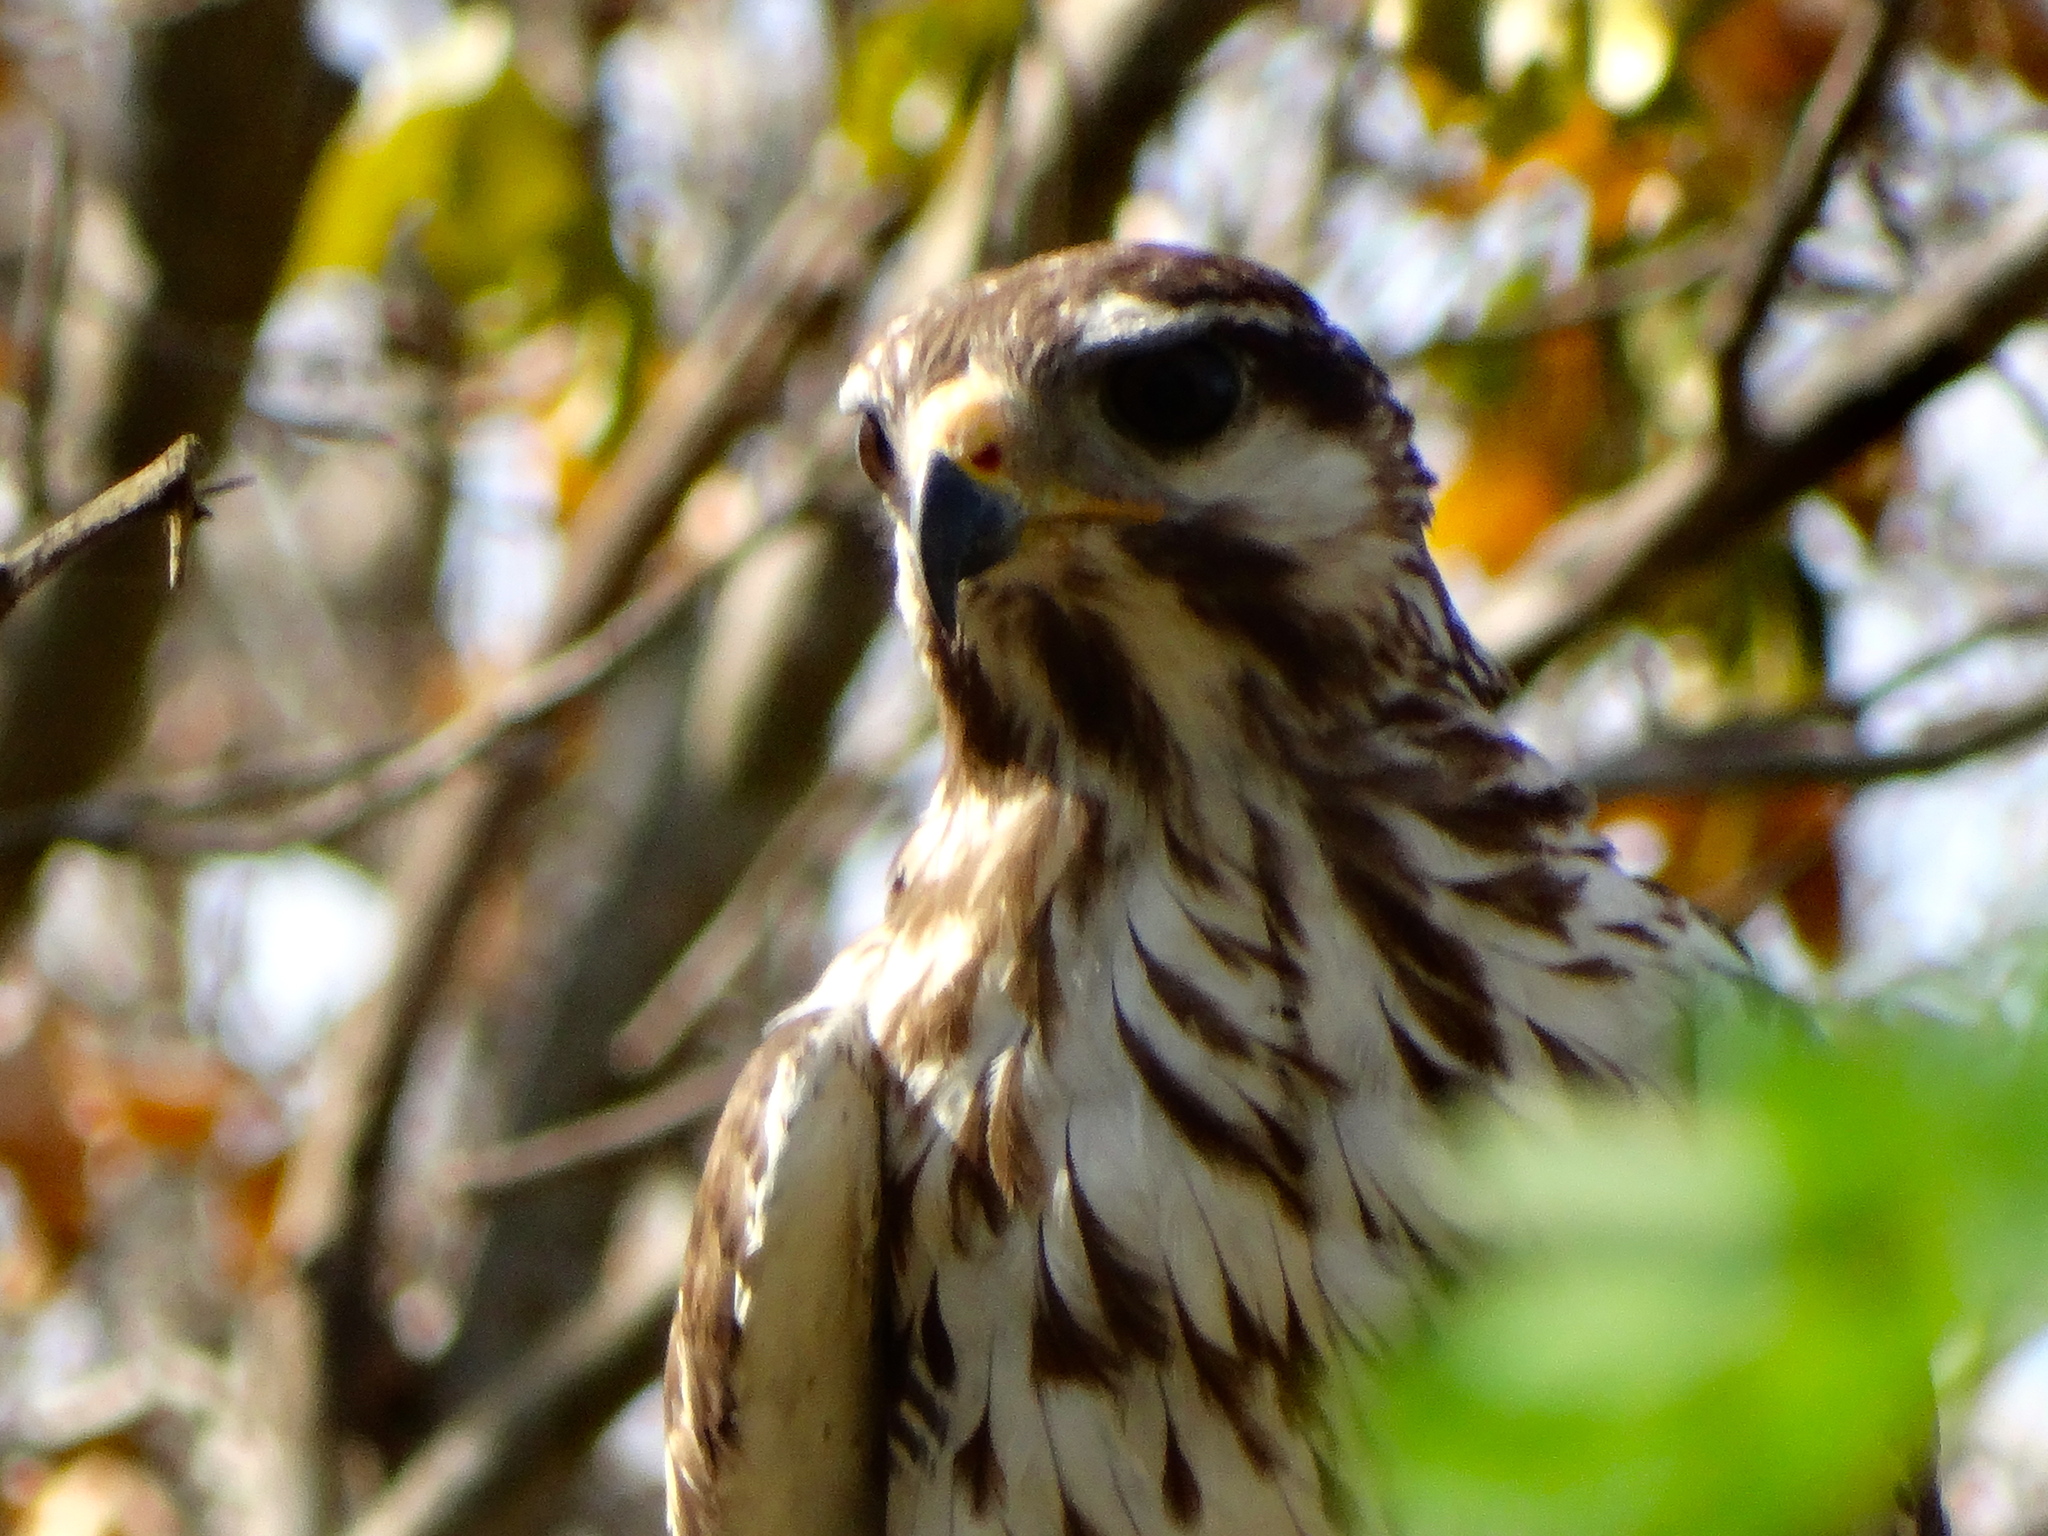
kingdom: Animalia
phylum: Chordata
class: Aves
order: Accipitriformes
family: Accipitridae
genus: Buteo
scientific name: Buteo nitidus
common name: Grey-lined hawk
